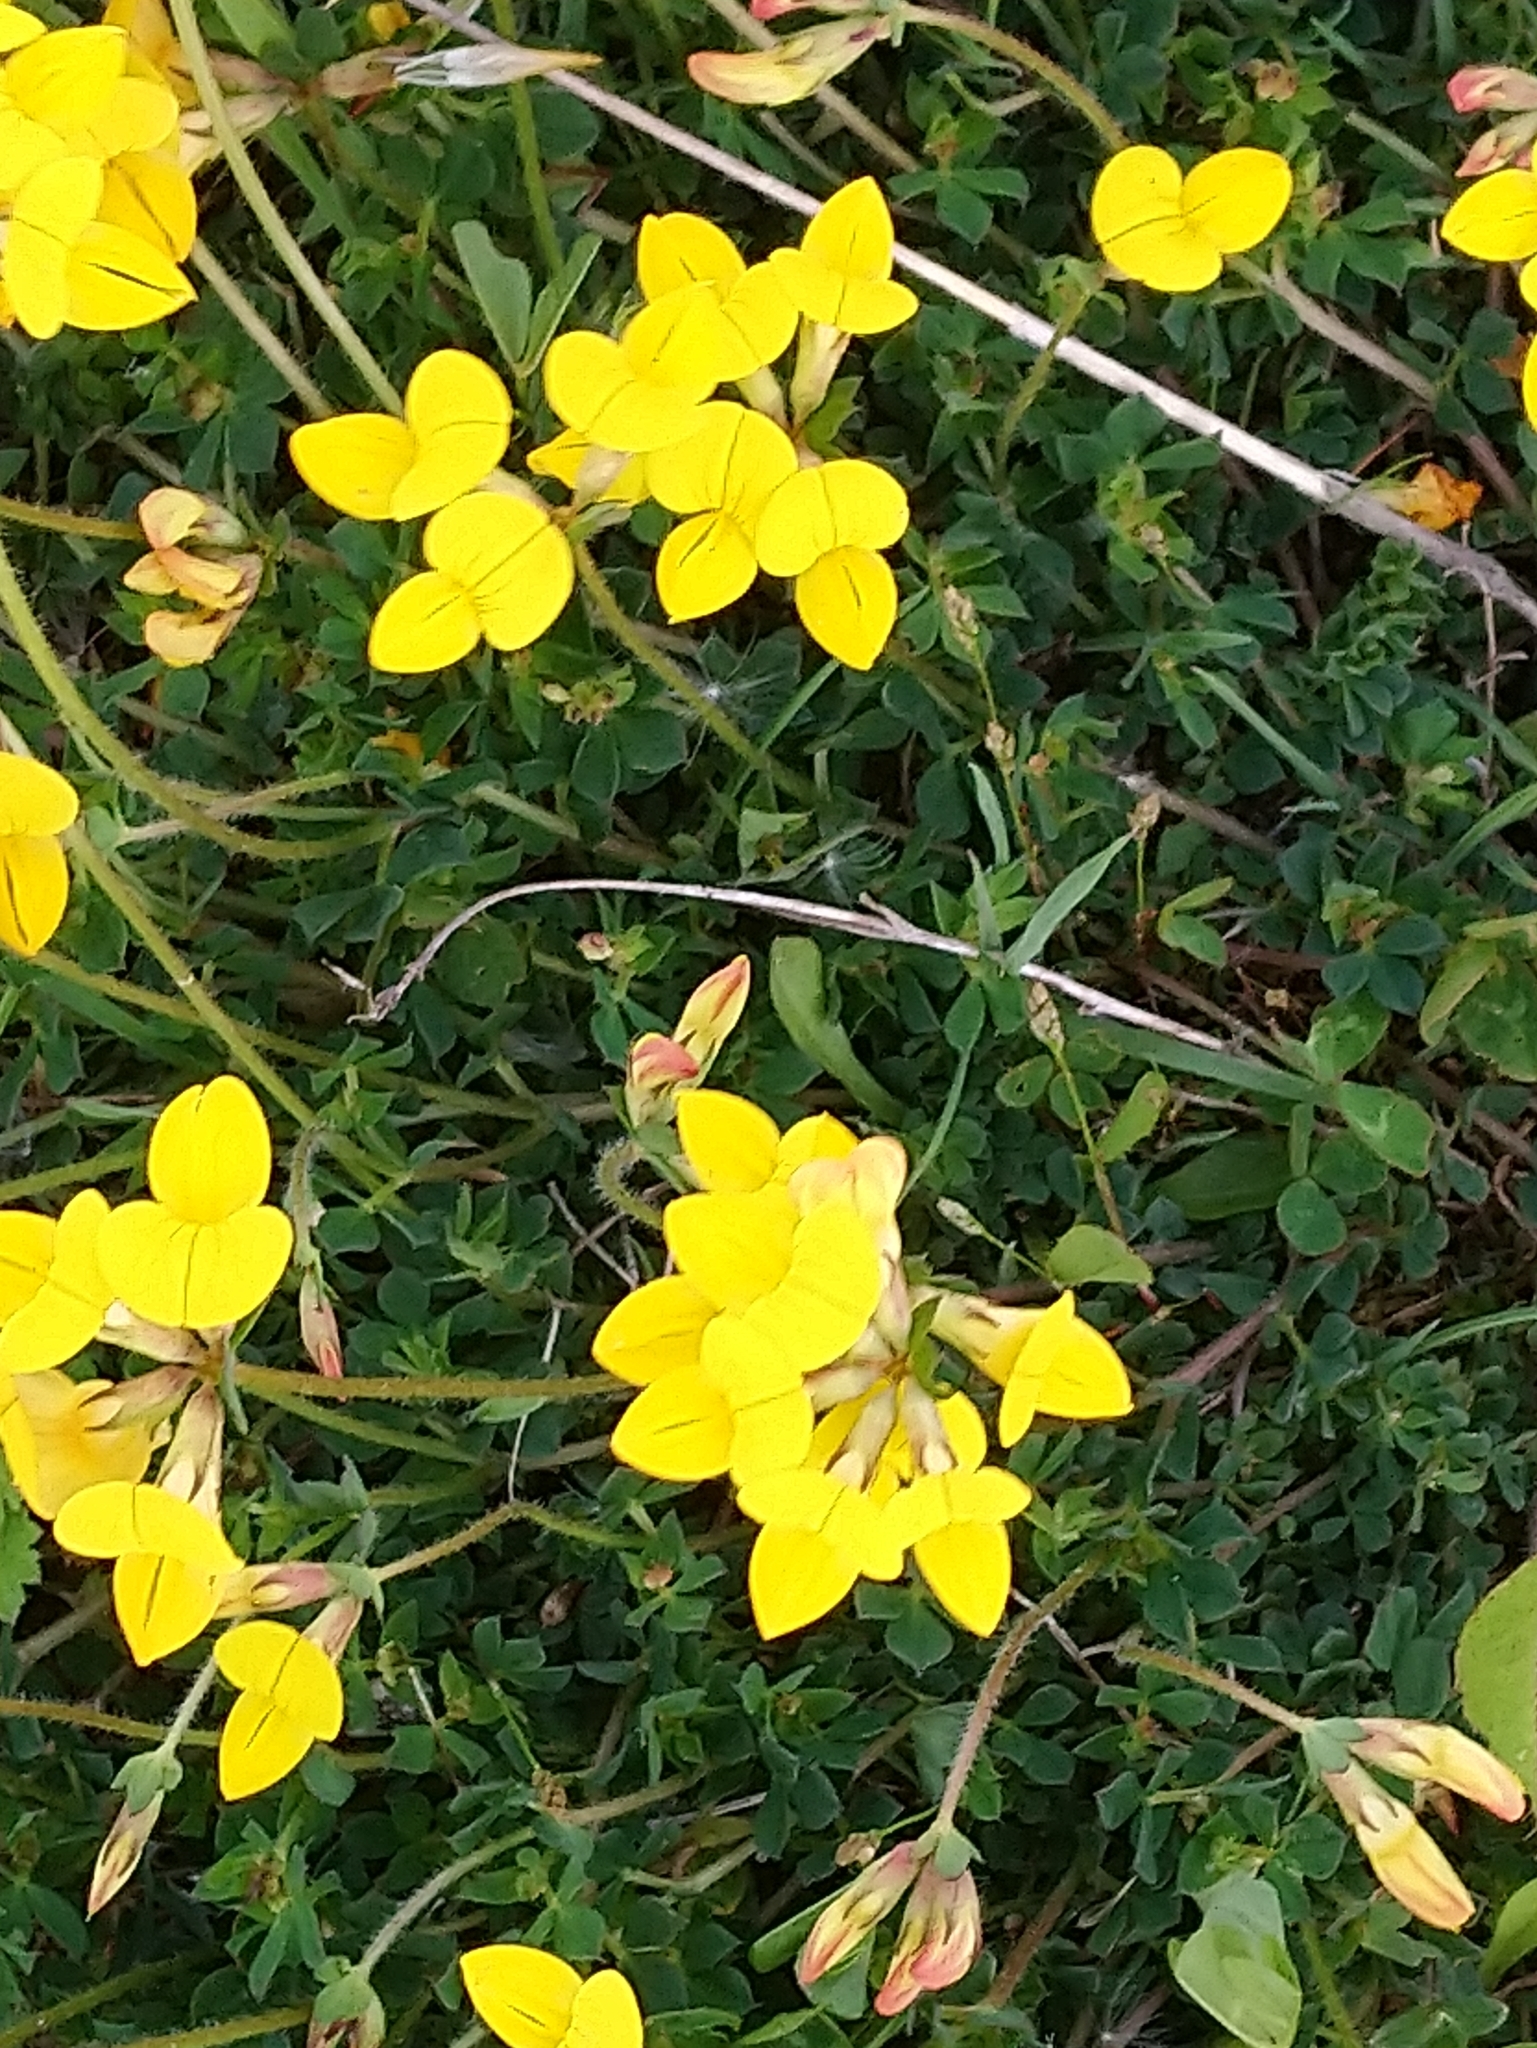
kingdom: Plantae
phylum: Tracheophyta
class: Magnoliopsida
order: Fabales
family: Fabaceae
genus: Lotus
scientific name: Lotus corniculatus
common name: Common bird's-foot-trefoil
